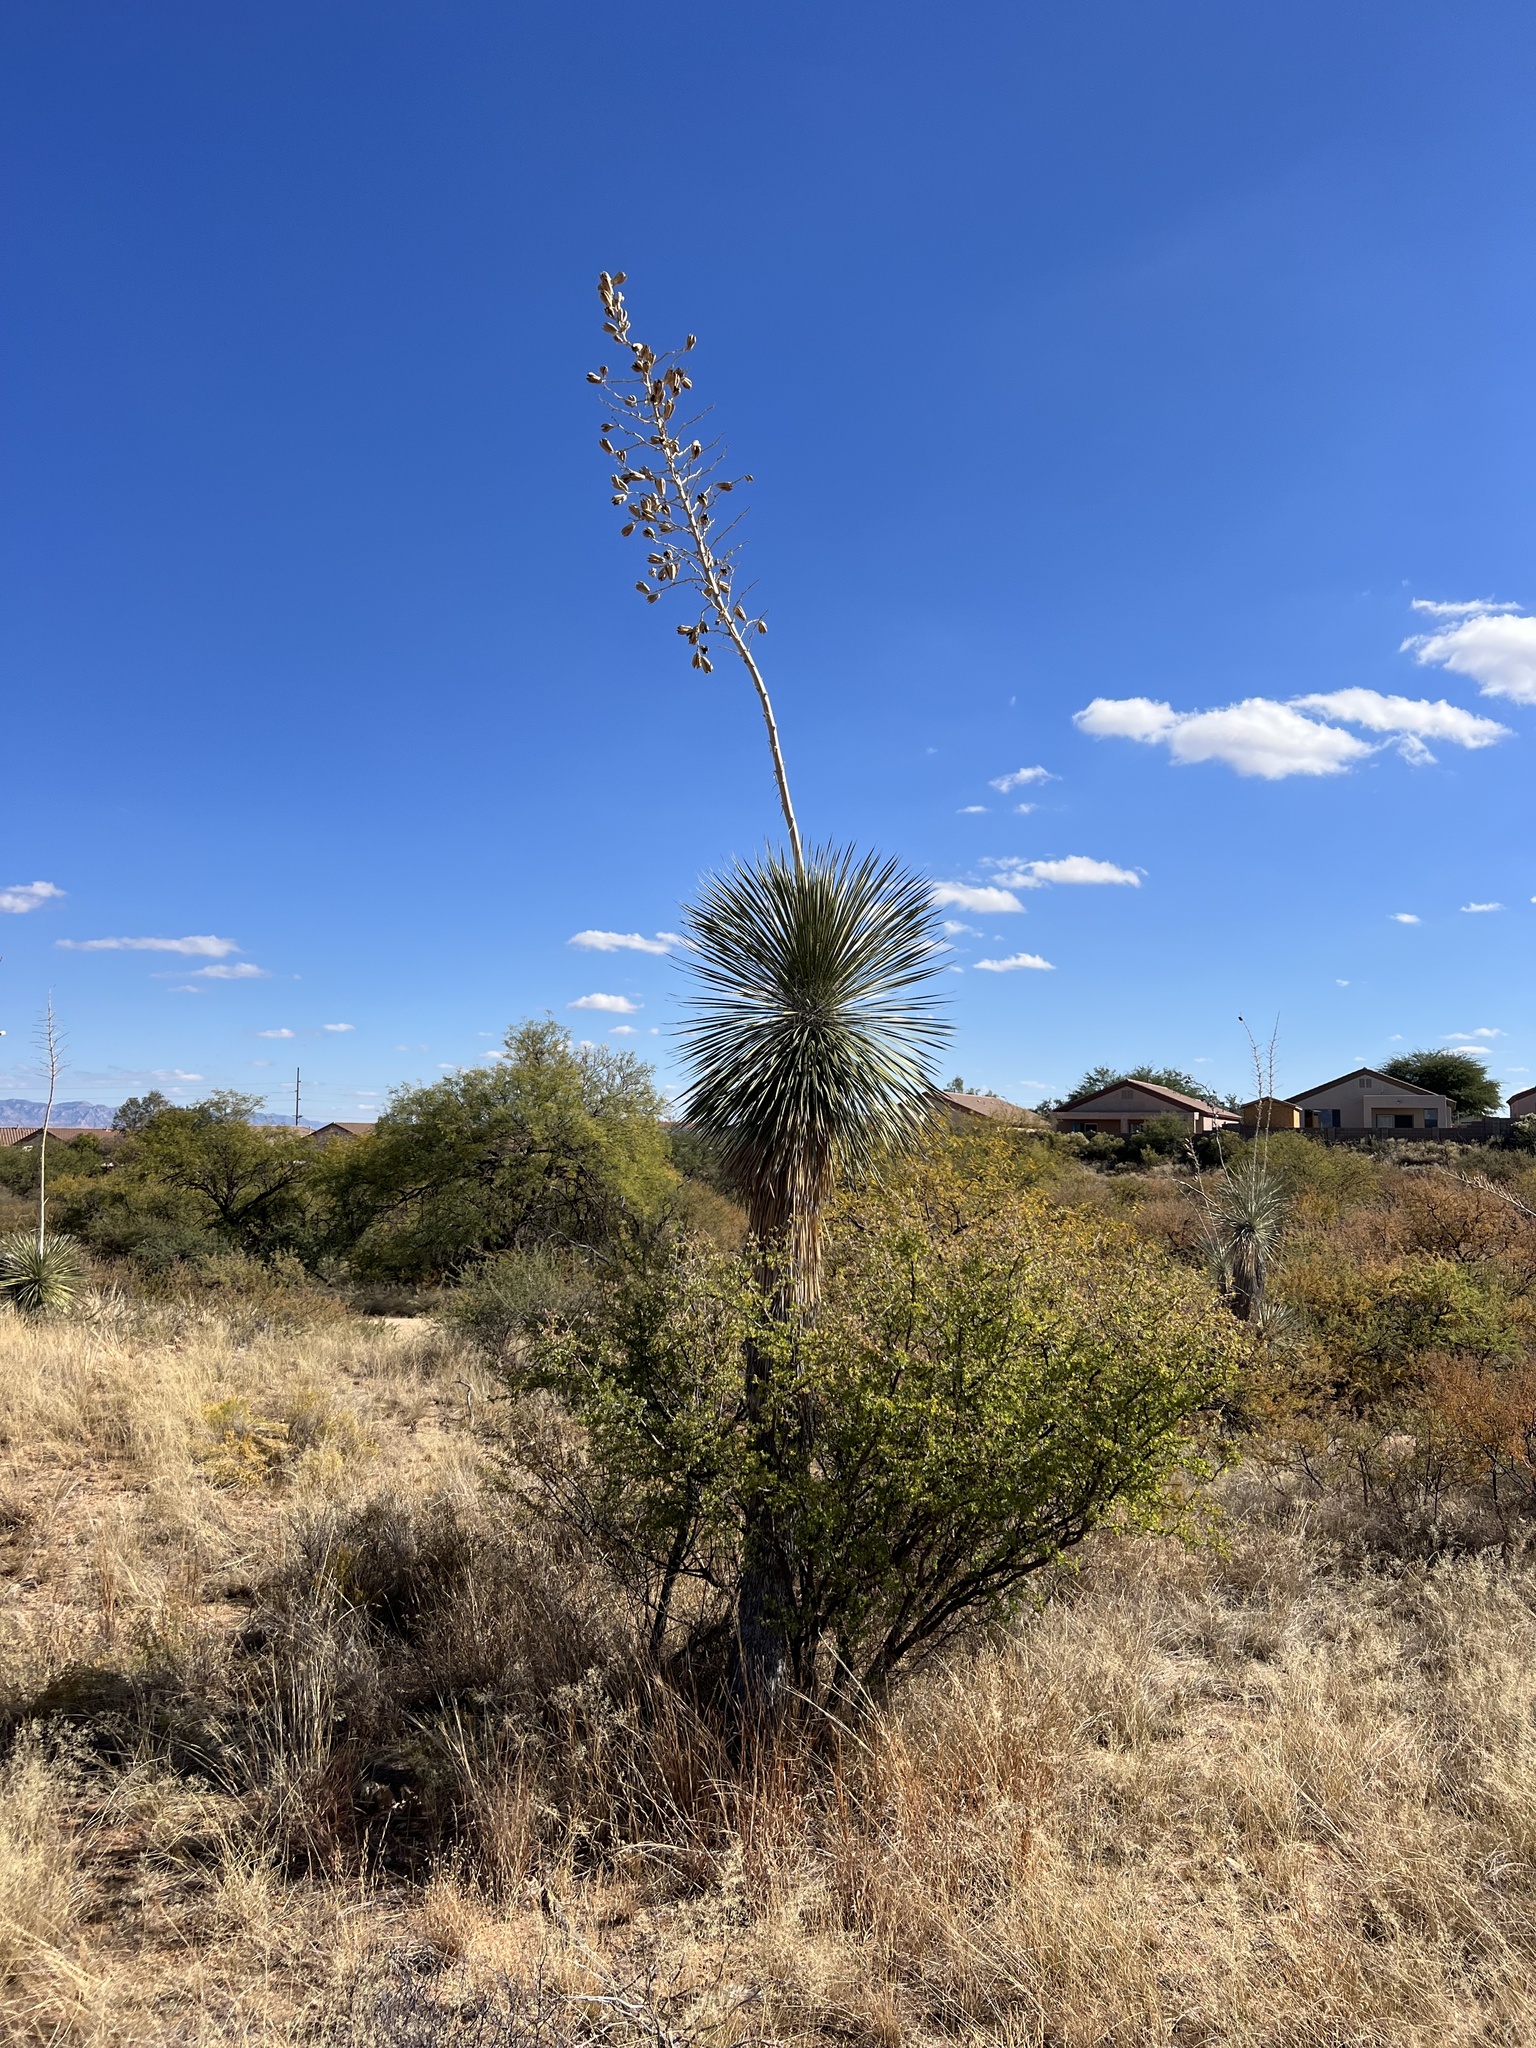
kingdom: Plantae
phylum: Tracheophyta
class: Liliopsida
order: Asparagales
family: Asparagaceae
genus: Yucca
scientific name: Yucca elata
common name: Palmella
